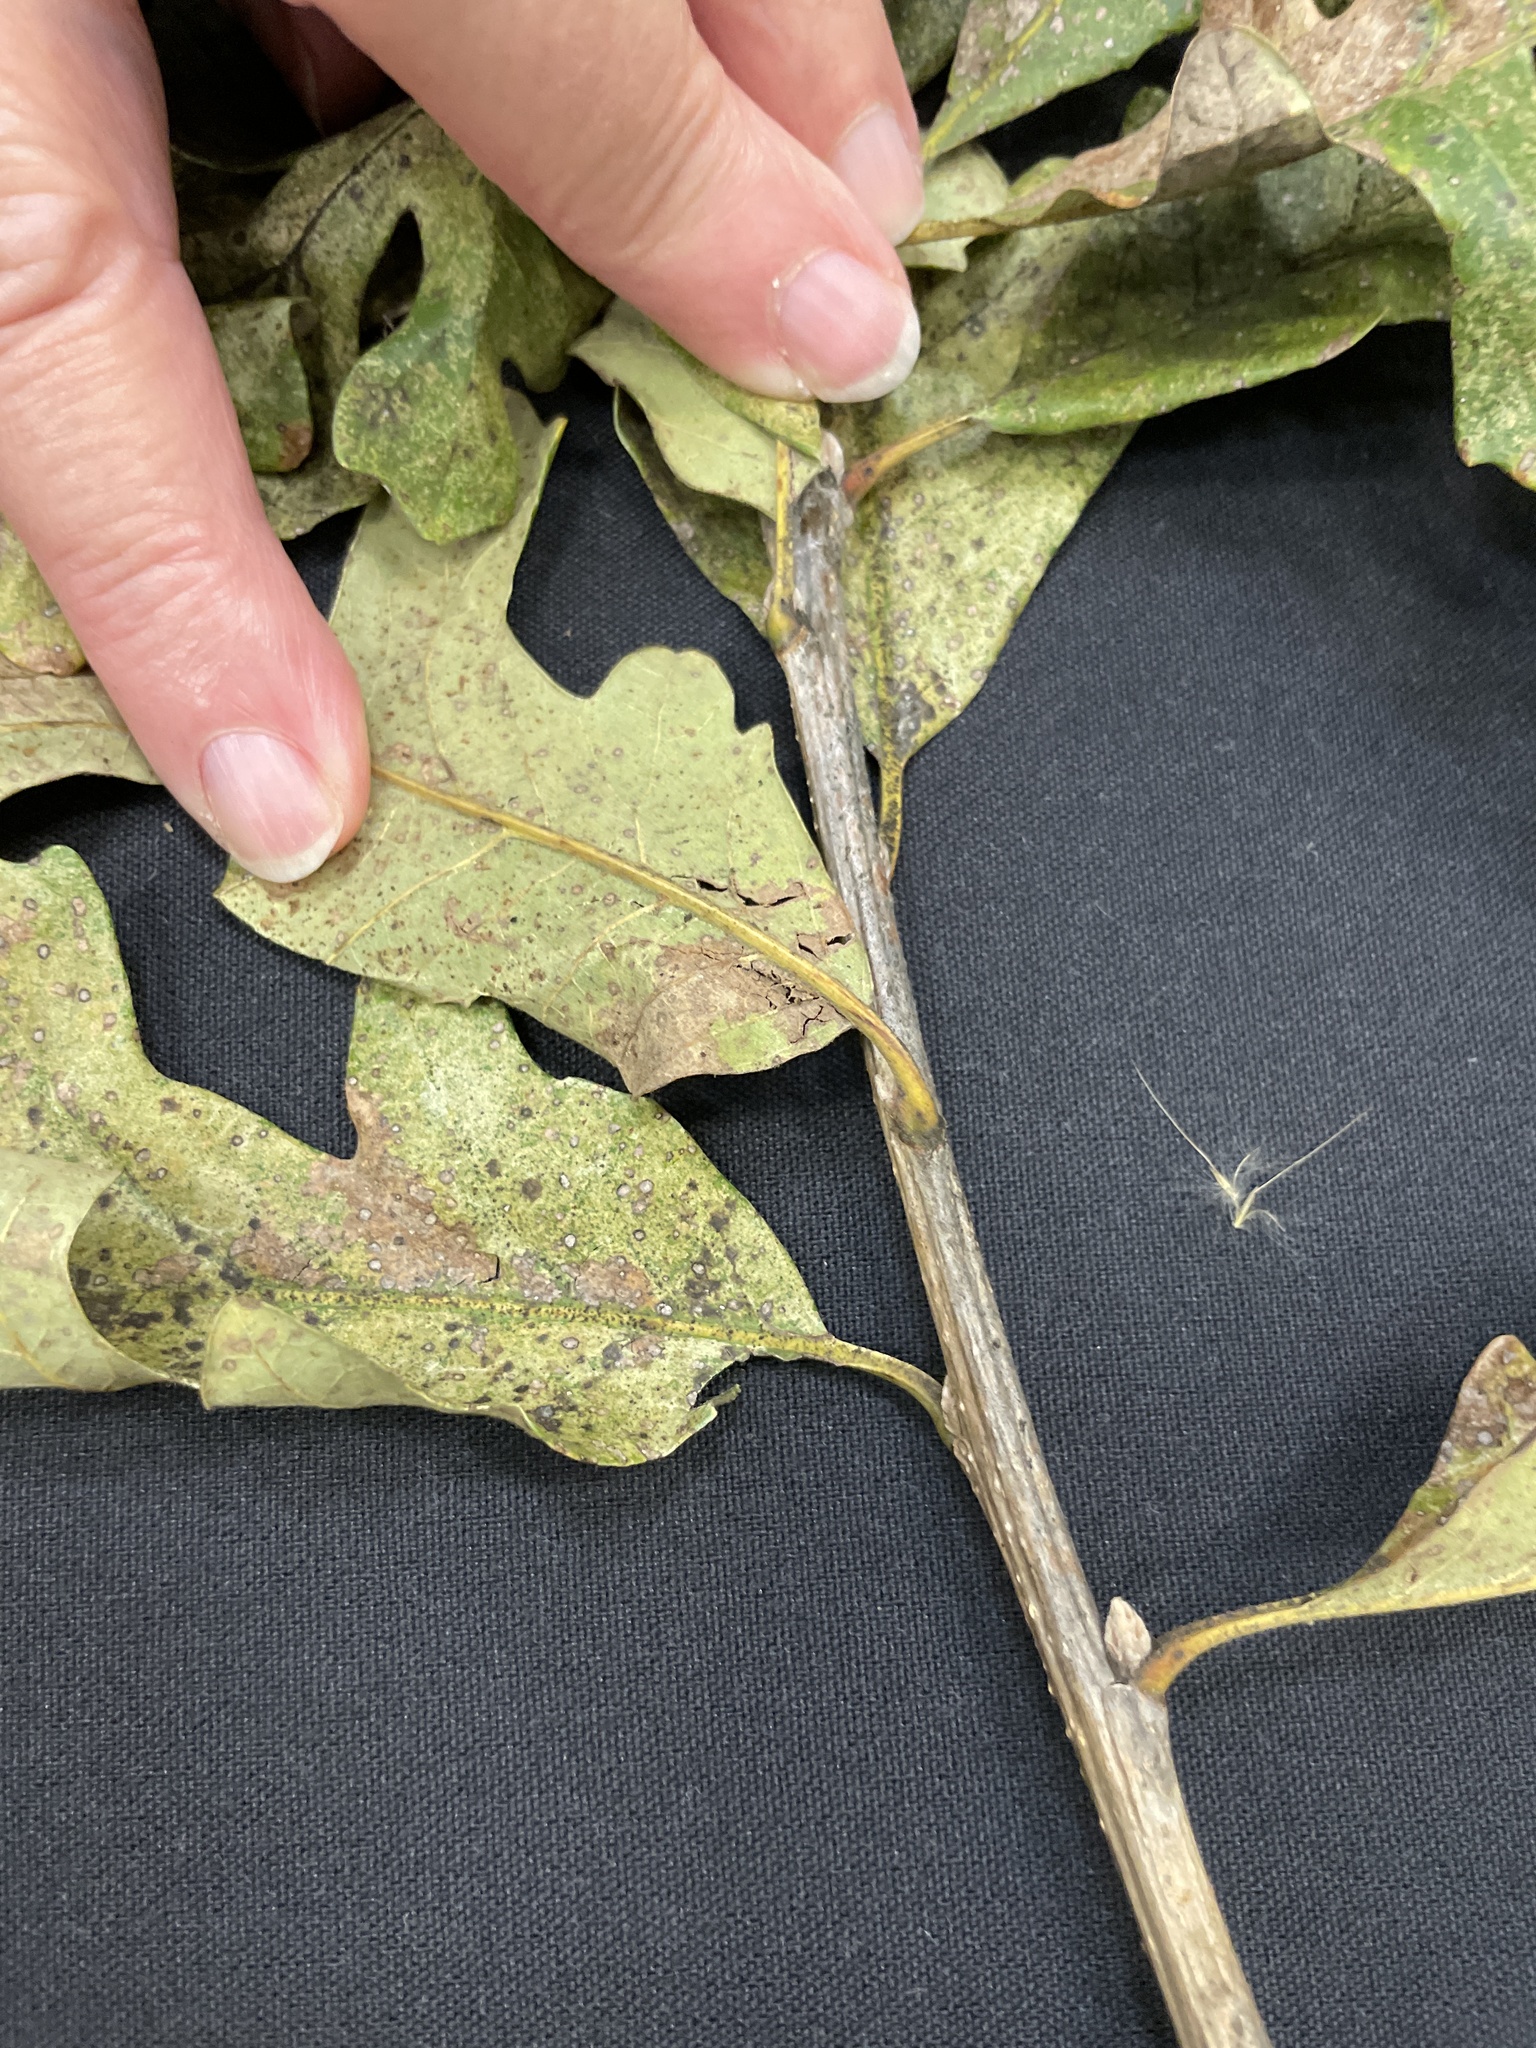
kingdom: Plantae
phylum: Tracheophyta
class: Magnoliopsida
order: Fagales
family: Fagaceae
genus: Quercus
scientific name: Quercus macrocarpa
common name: Bur oak
